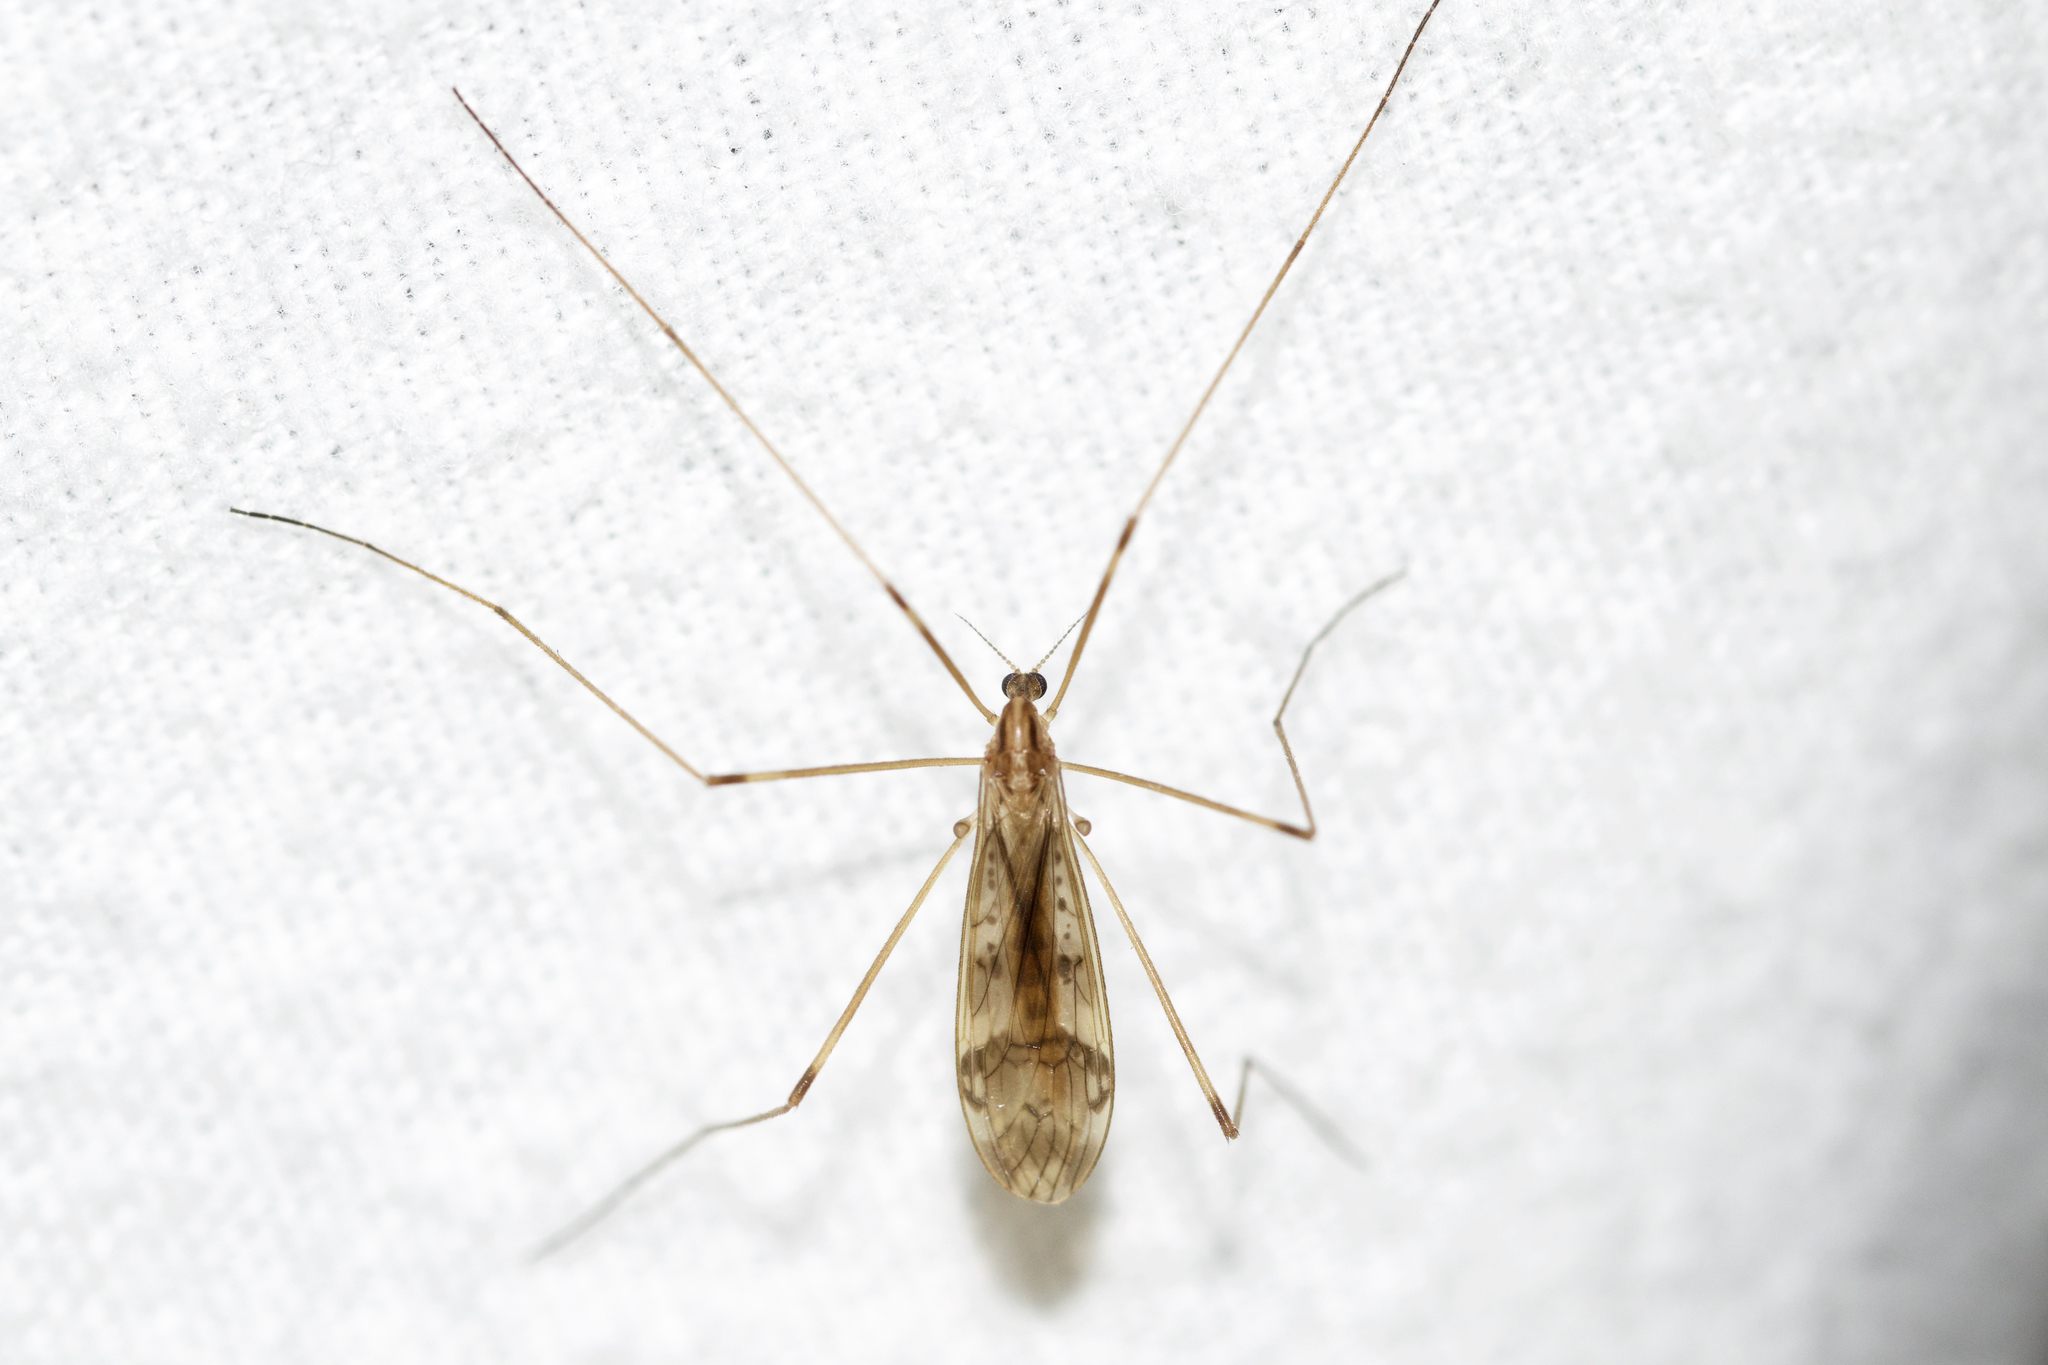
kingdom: Animalia
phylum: Arthropoda
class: Insecta
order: Diptera
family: Limoniidae
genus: Metalimnobia
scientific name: Metalimnobia solitaria
